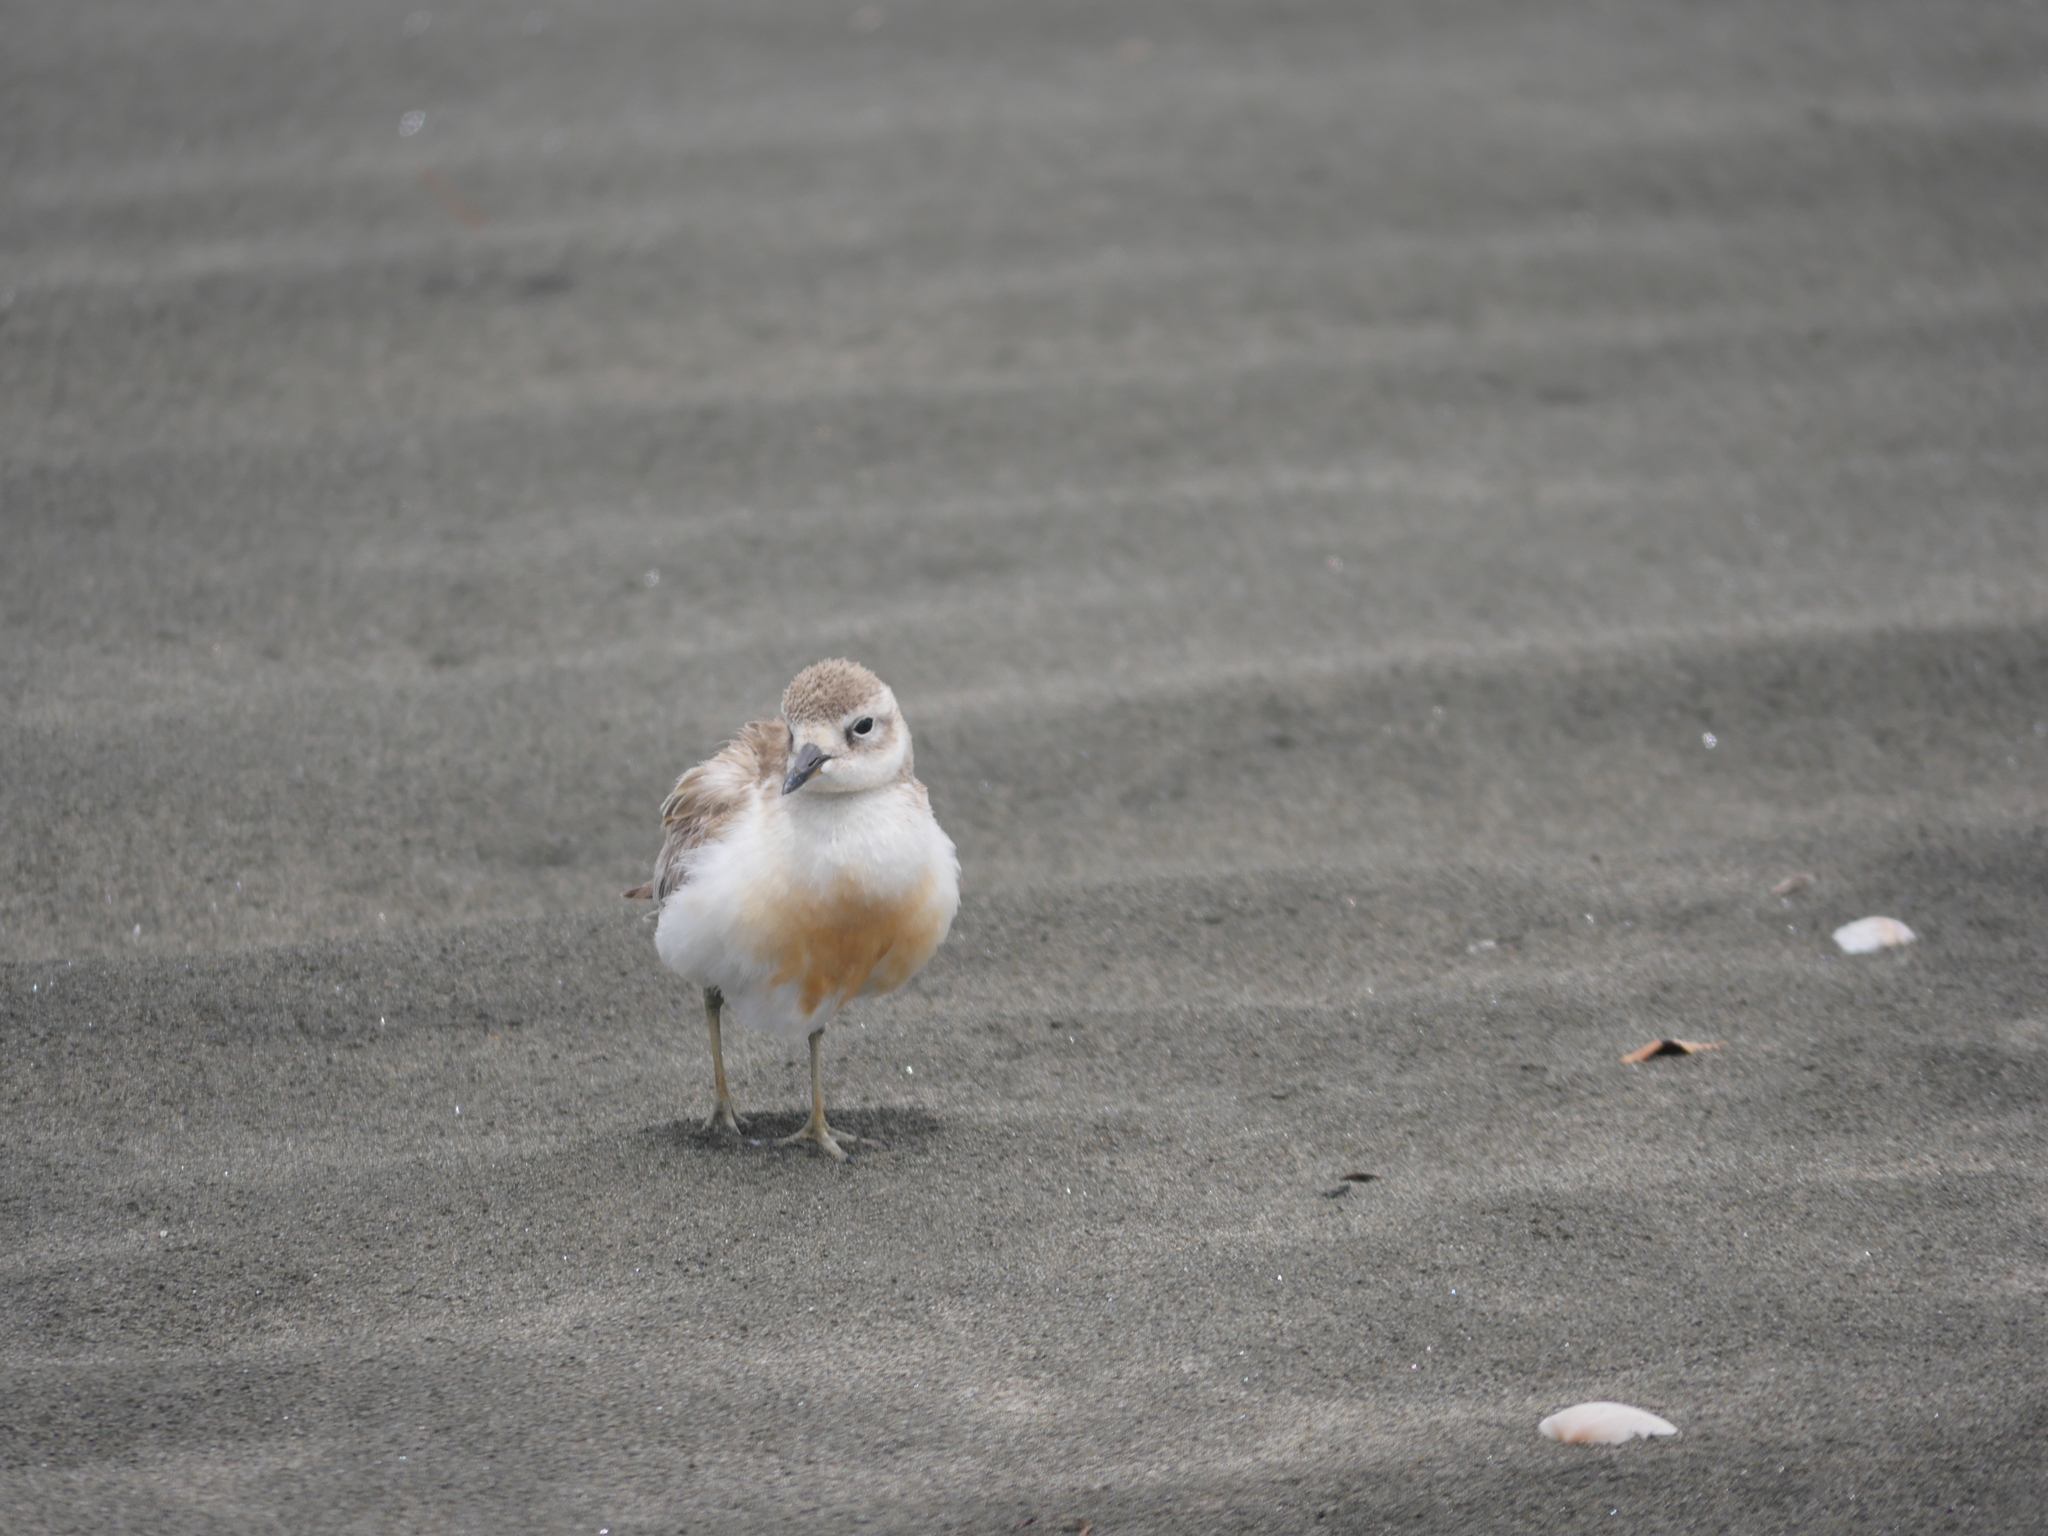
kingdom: Animalia
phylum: Chordata
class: Aves
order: Charadriiformes
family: Charadriidae
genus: Anarhynchus
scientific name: Anarhynchus
